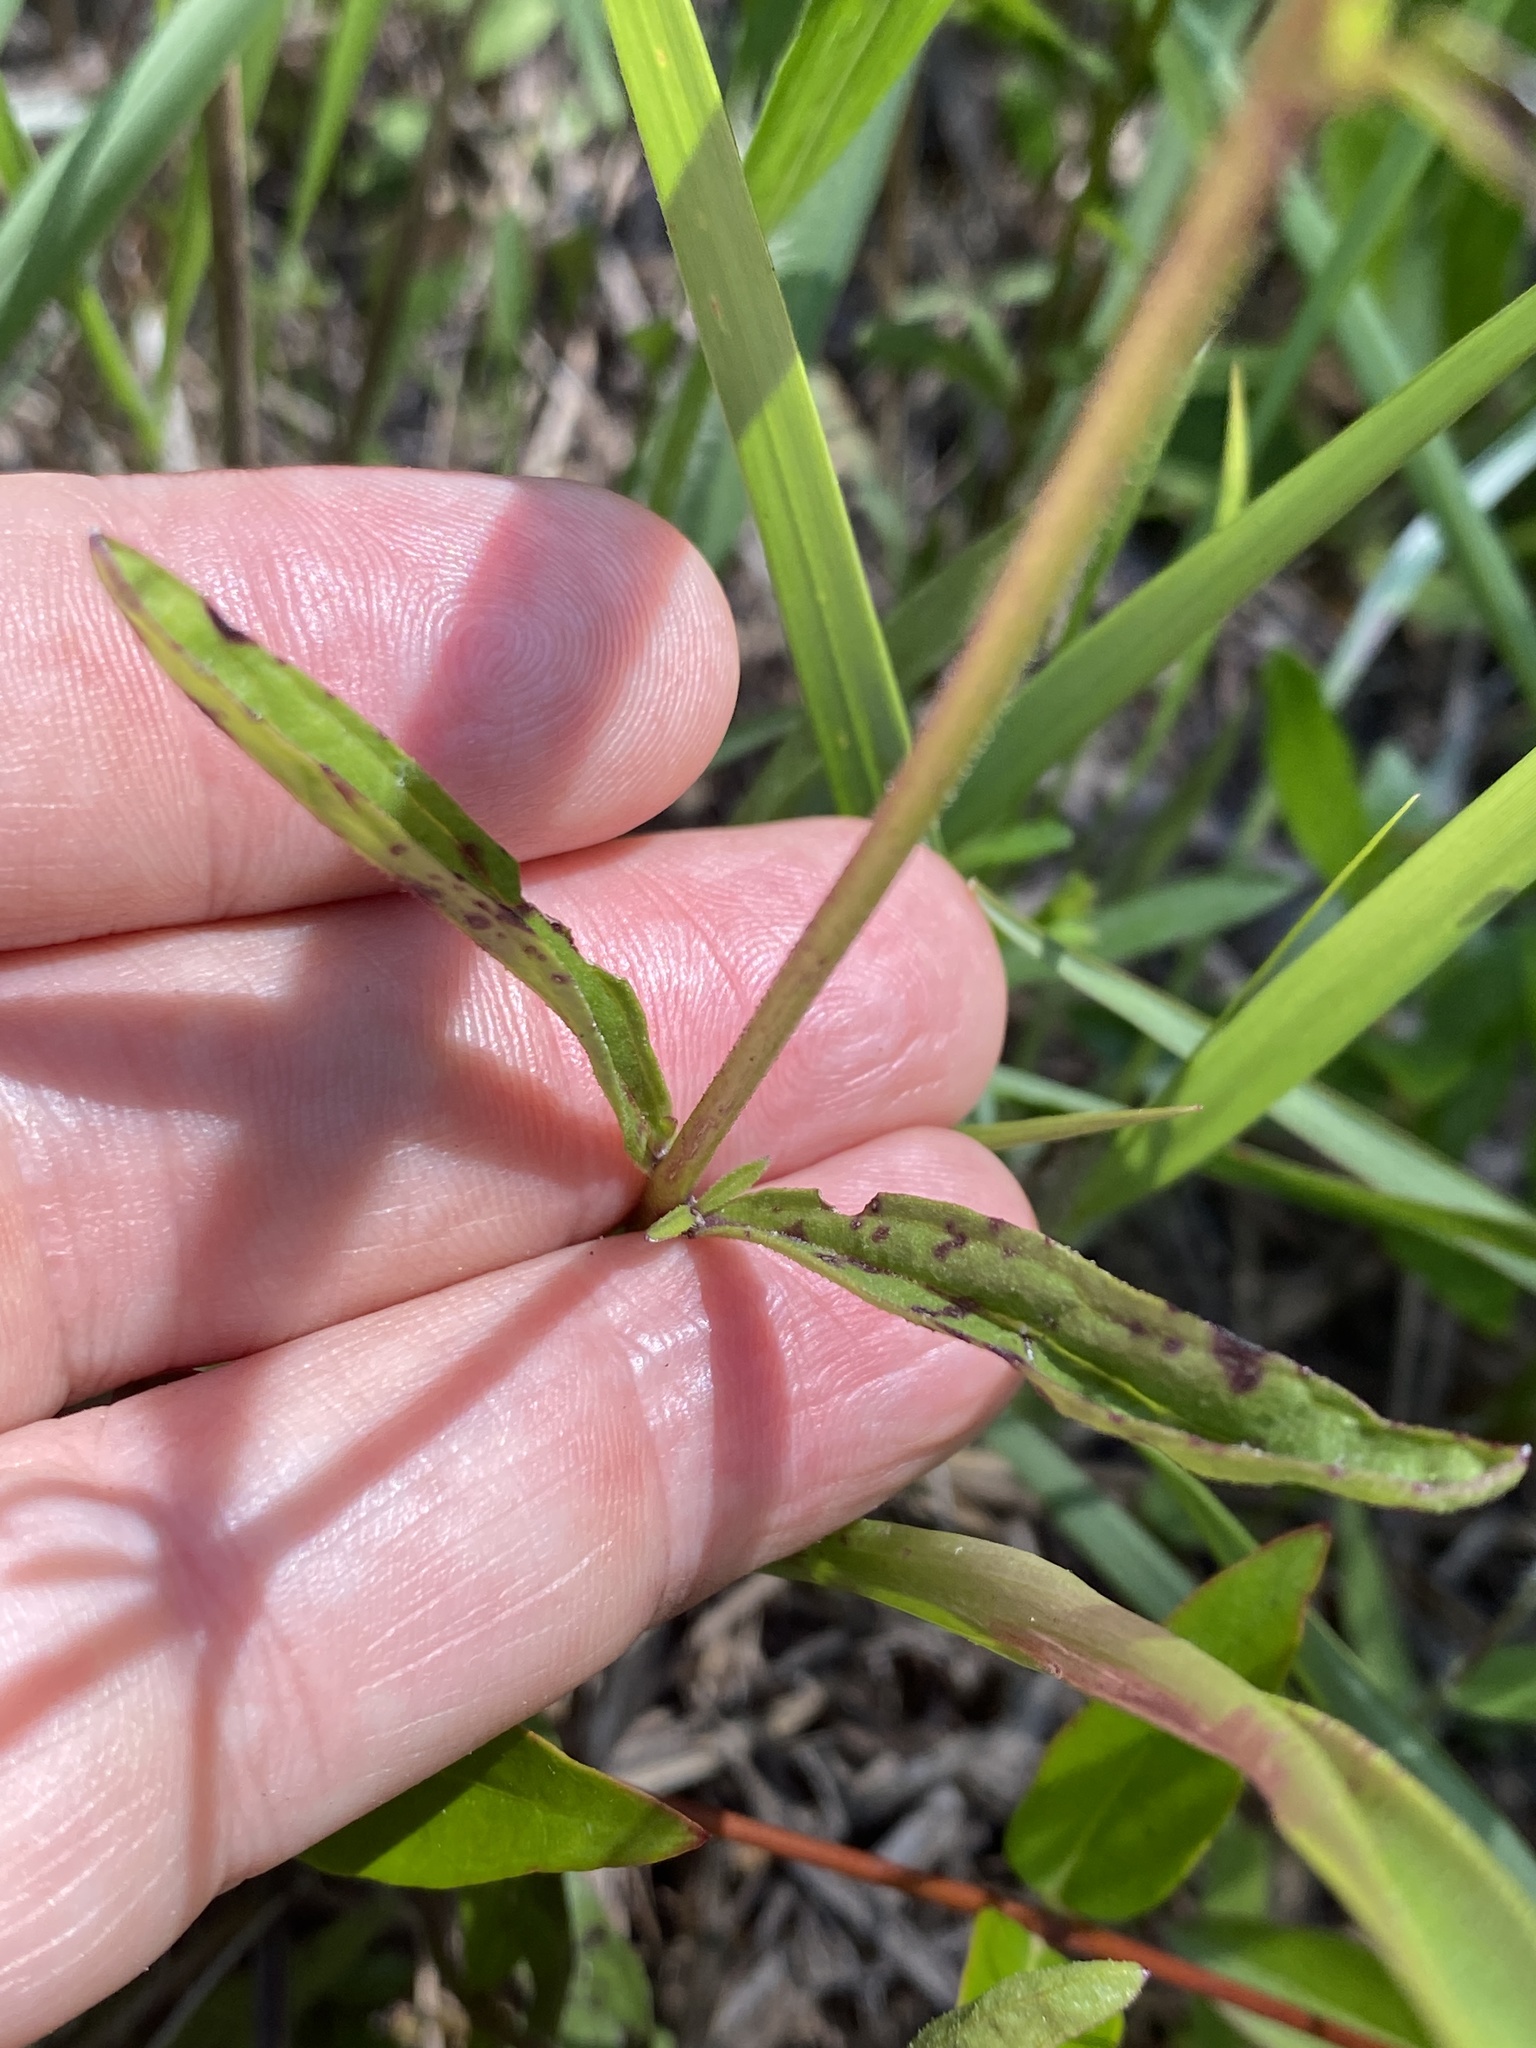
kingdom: Plantae
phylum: Tracheophyta
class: Magnoliopsida
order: Lamiales
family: Orobanchaceae
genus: Buchnera
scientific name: Buchnera floridana
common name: Florida bluehearts
